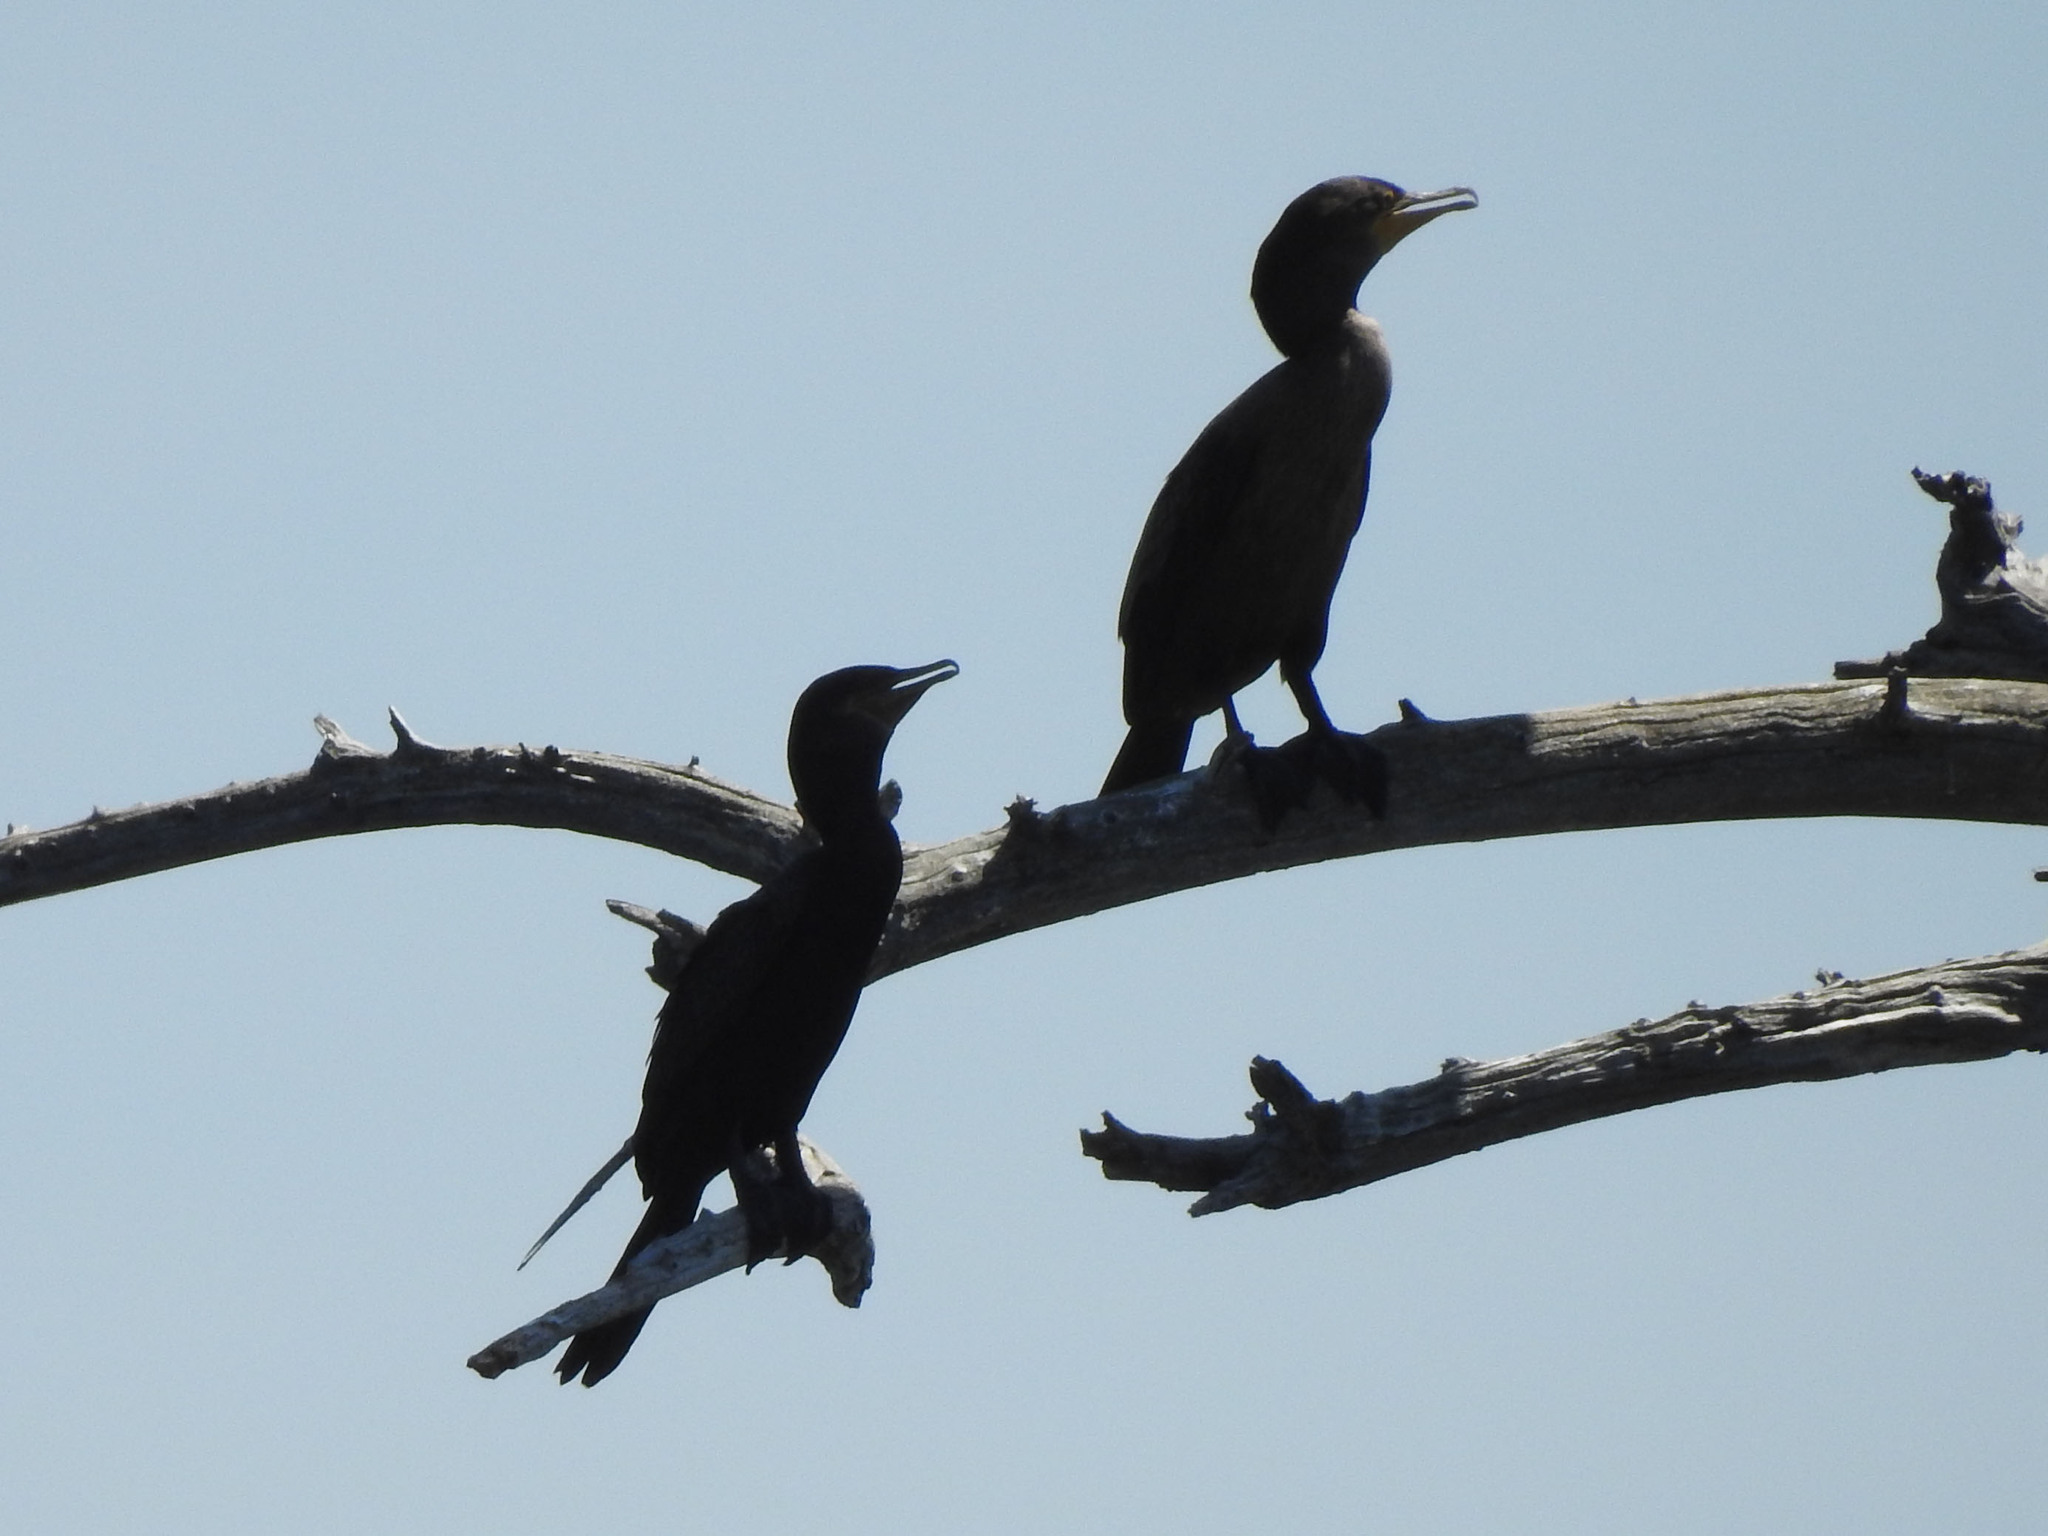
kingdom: Animalia
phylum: Chordata
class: Aves
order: Suliformes
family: Phalacrocoracidae
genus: Phalacrocorax
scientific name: Phalacrocorax brasilianus
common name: Neotropic cormorant
